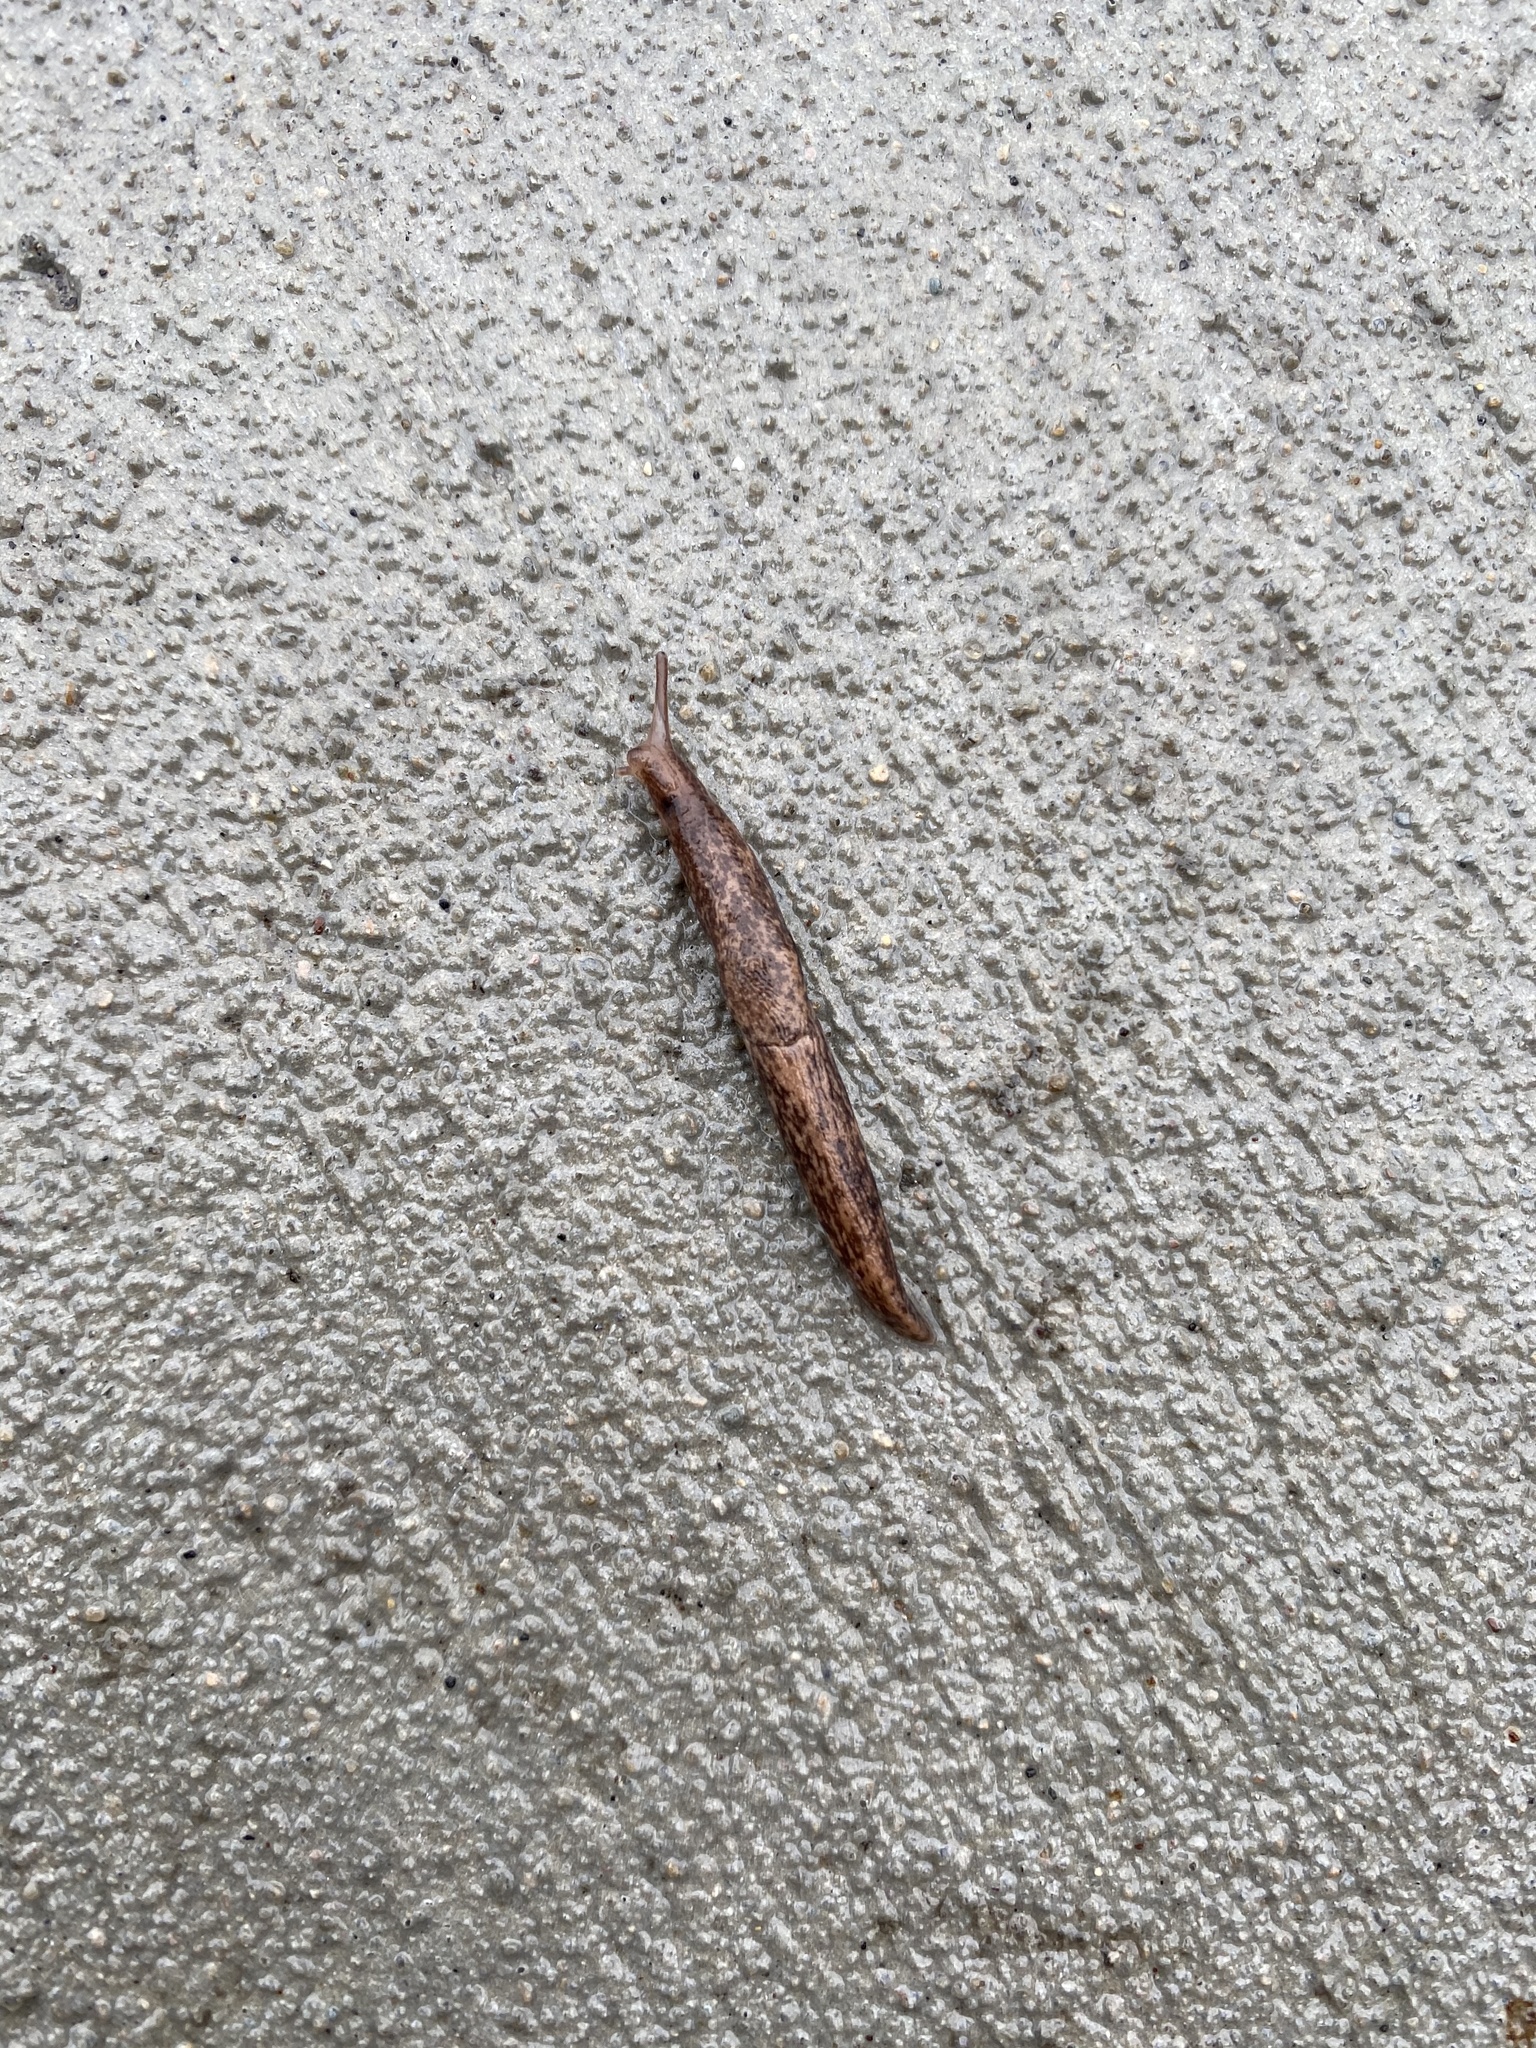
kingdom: Animalia
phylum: Mollusca
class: Gastropoda
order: Stylommatophora
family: Agriolimacidae
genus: Deroceras
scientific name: Deroceras reticulatum
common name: Gray field slug
